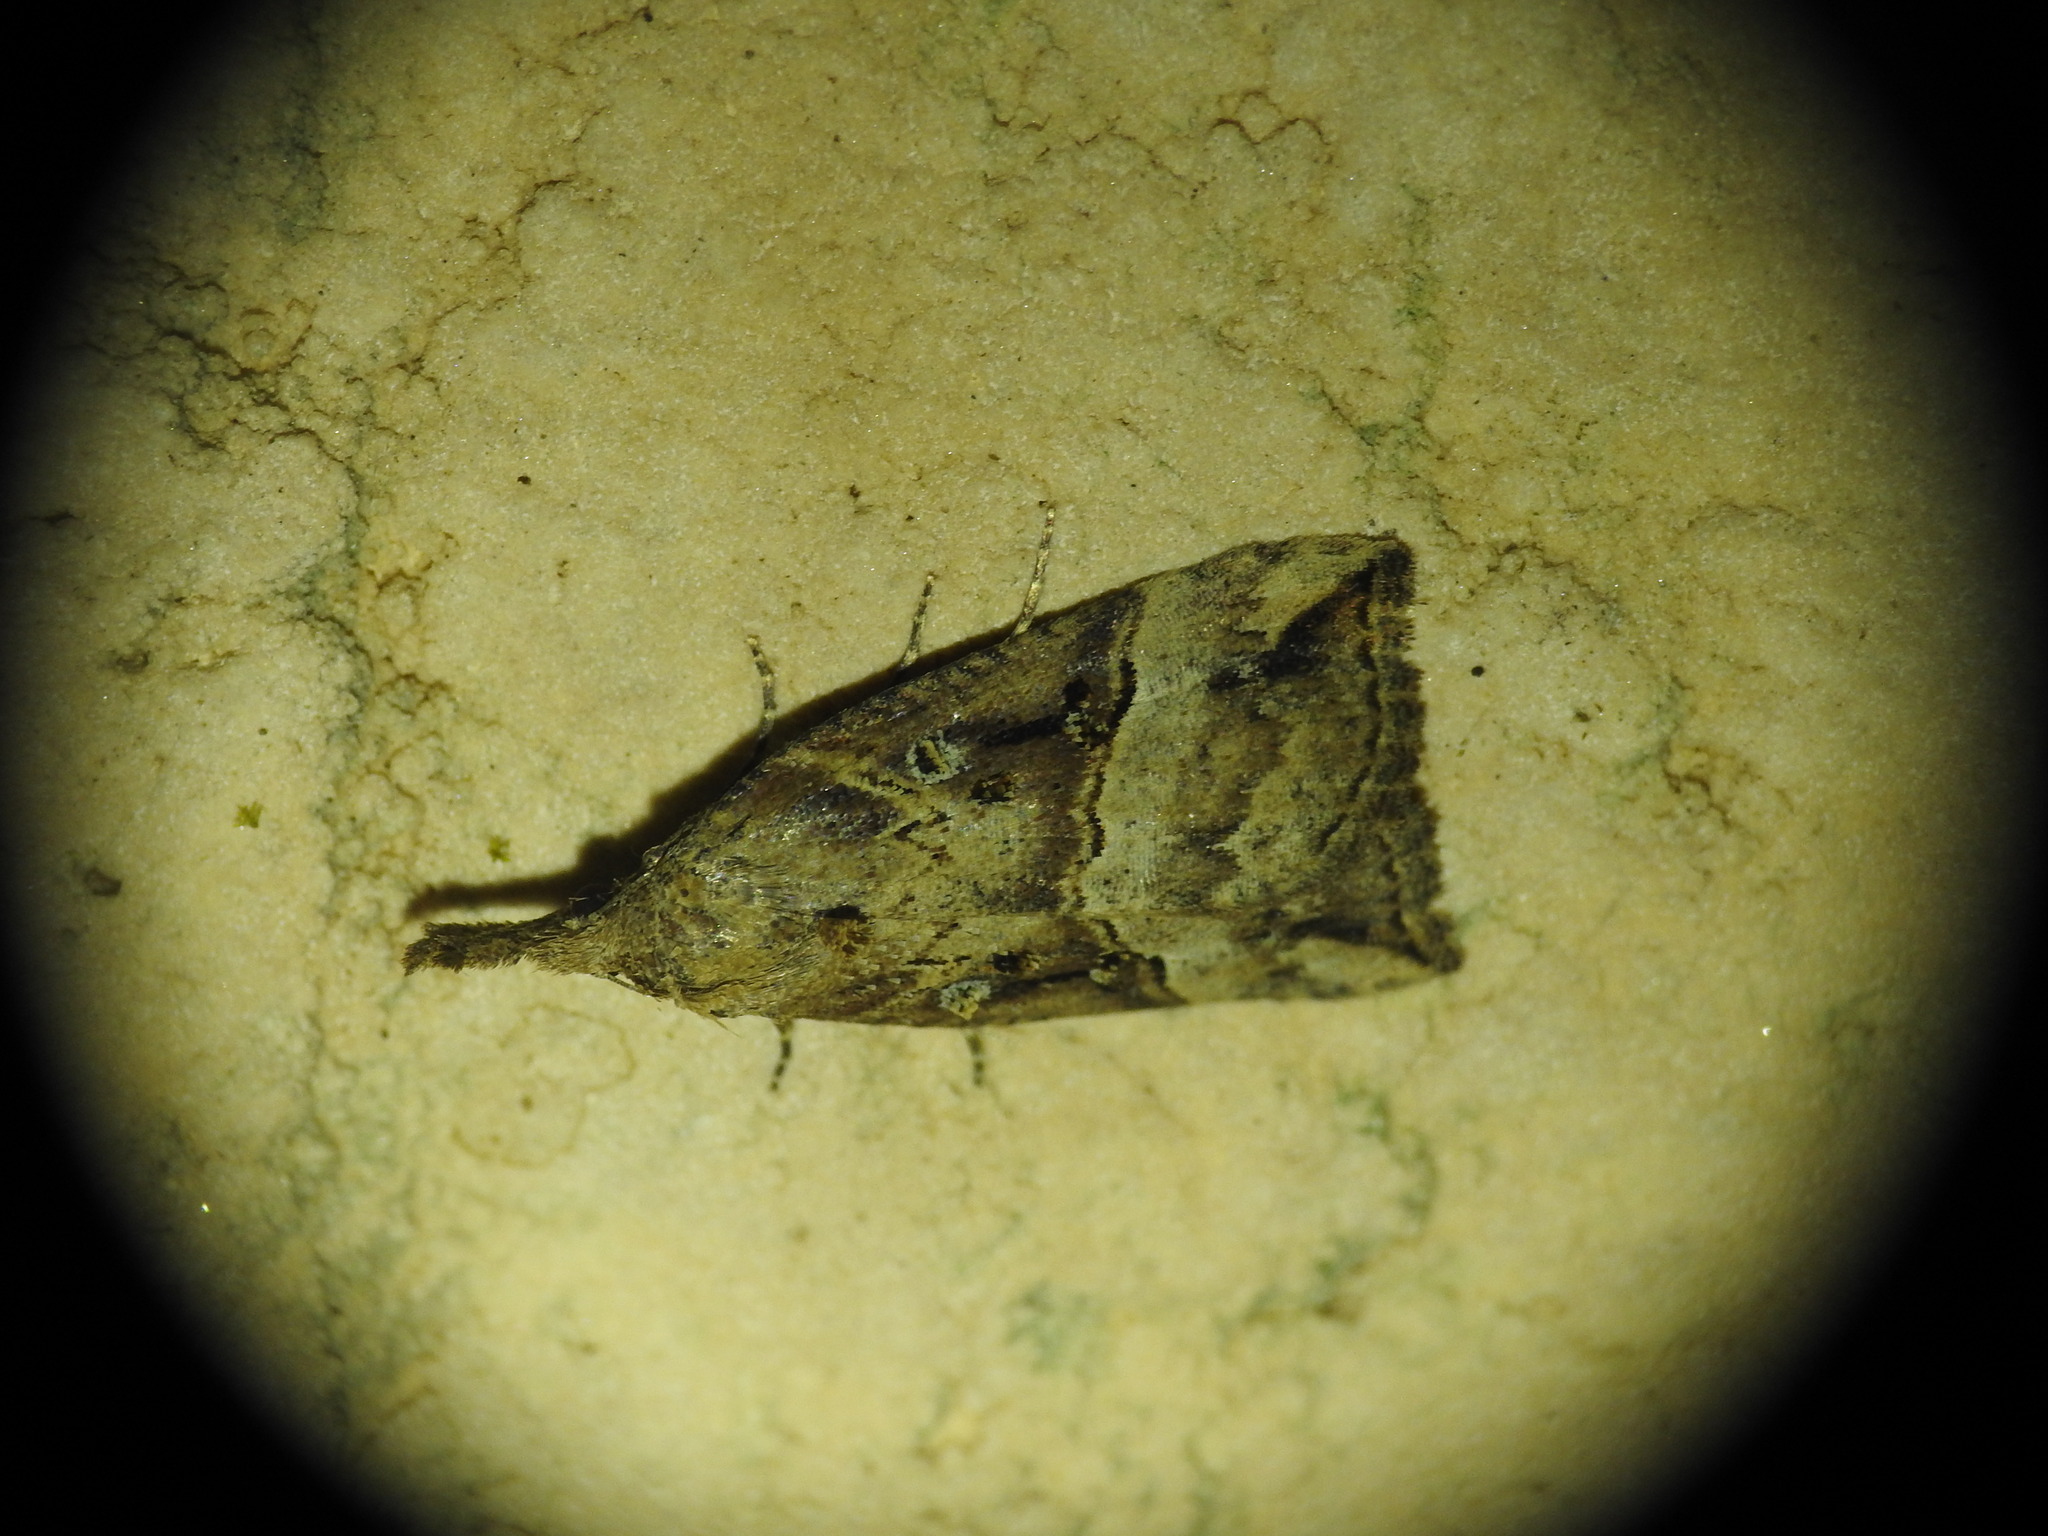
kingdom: Animalia
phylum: Arthropoda
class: Insecta
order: Lepidoptera
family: Erebidae
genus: Hypena
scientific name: Hypena rostralis
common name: Buttoned snout
